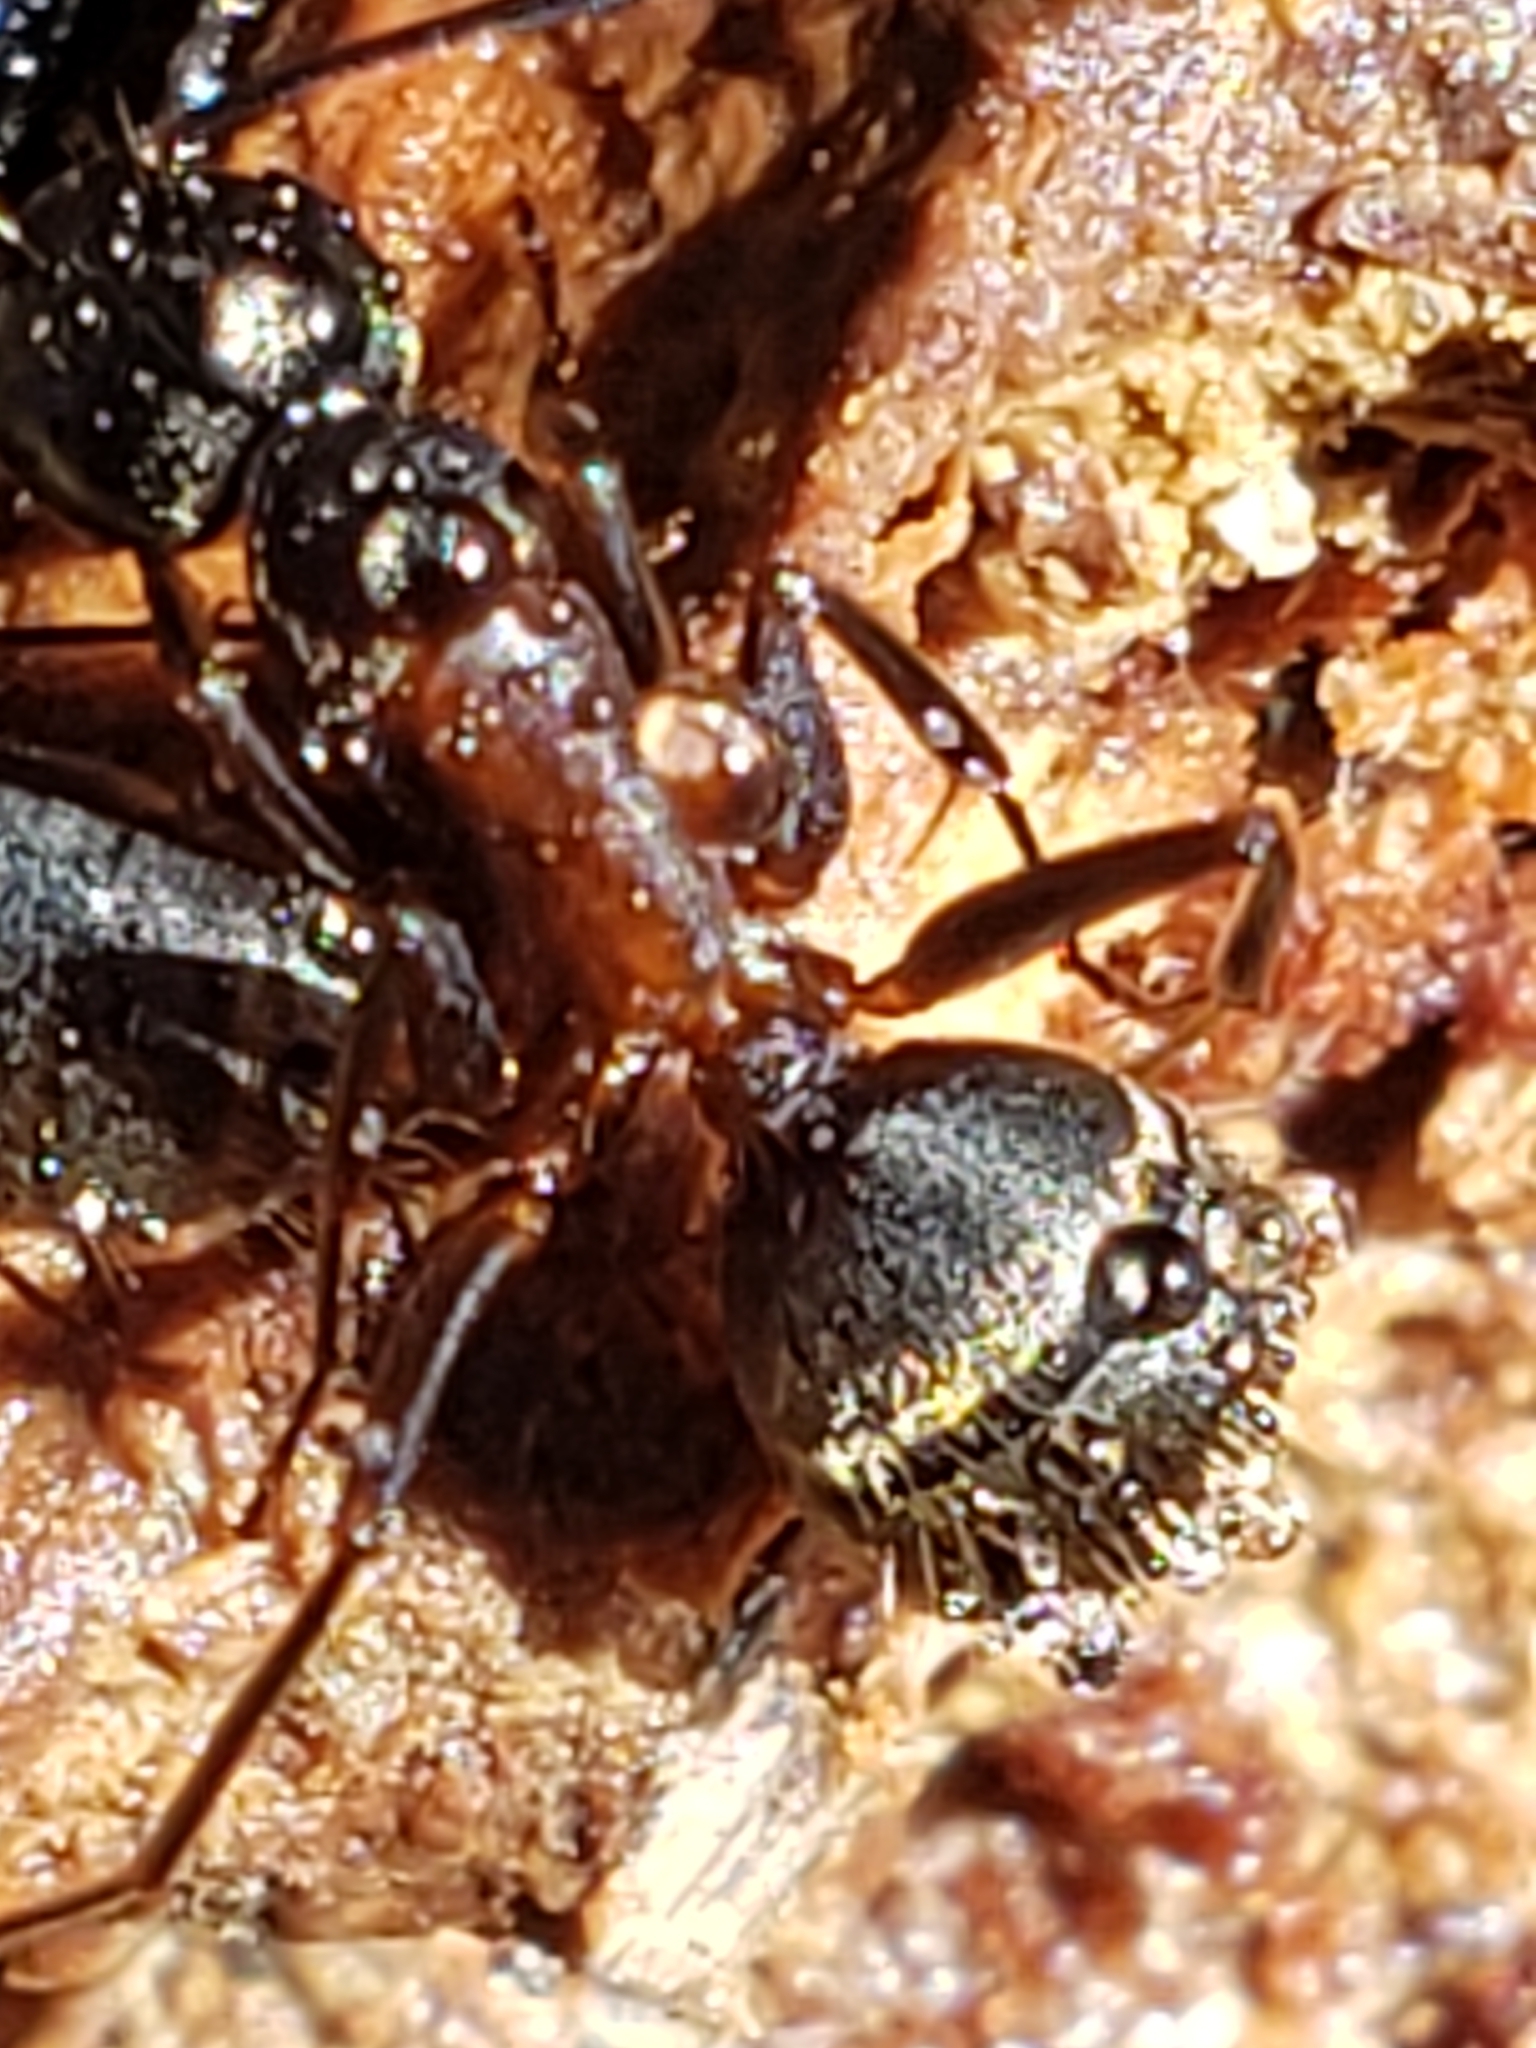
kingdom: Animalia
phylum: Arthropoda
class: Insecta
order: Hymenoptera
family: Formicidae
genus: Camponotus
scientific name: Camponotus chromaiodes
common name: Red carpenter ant
